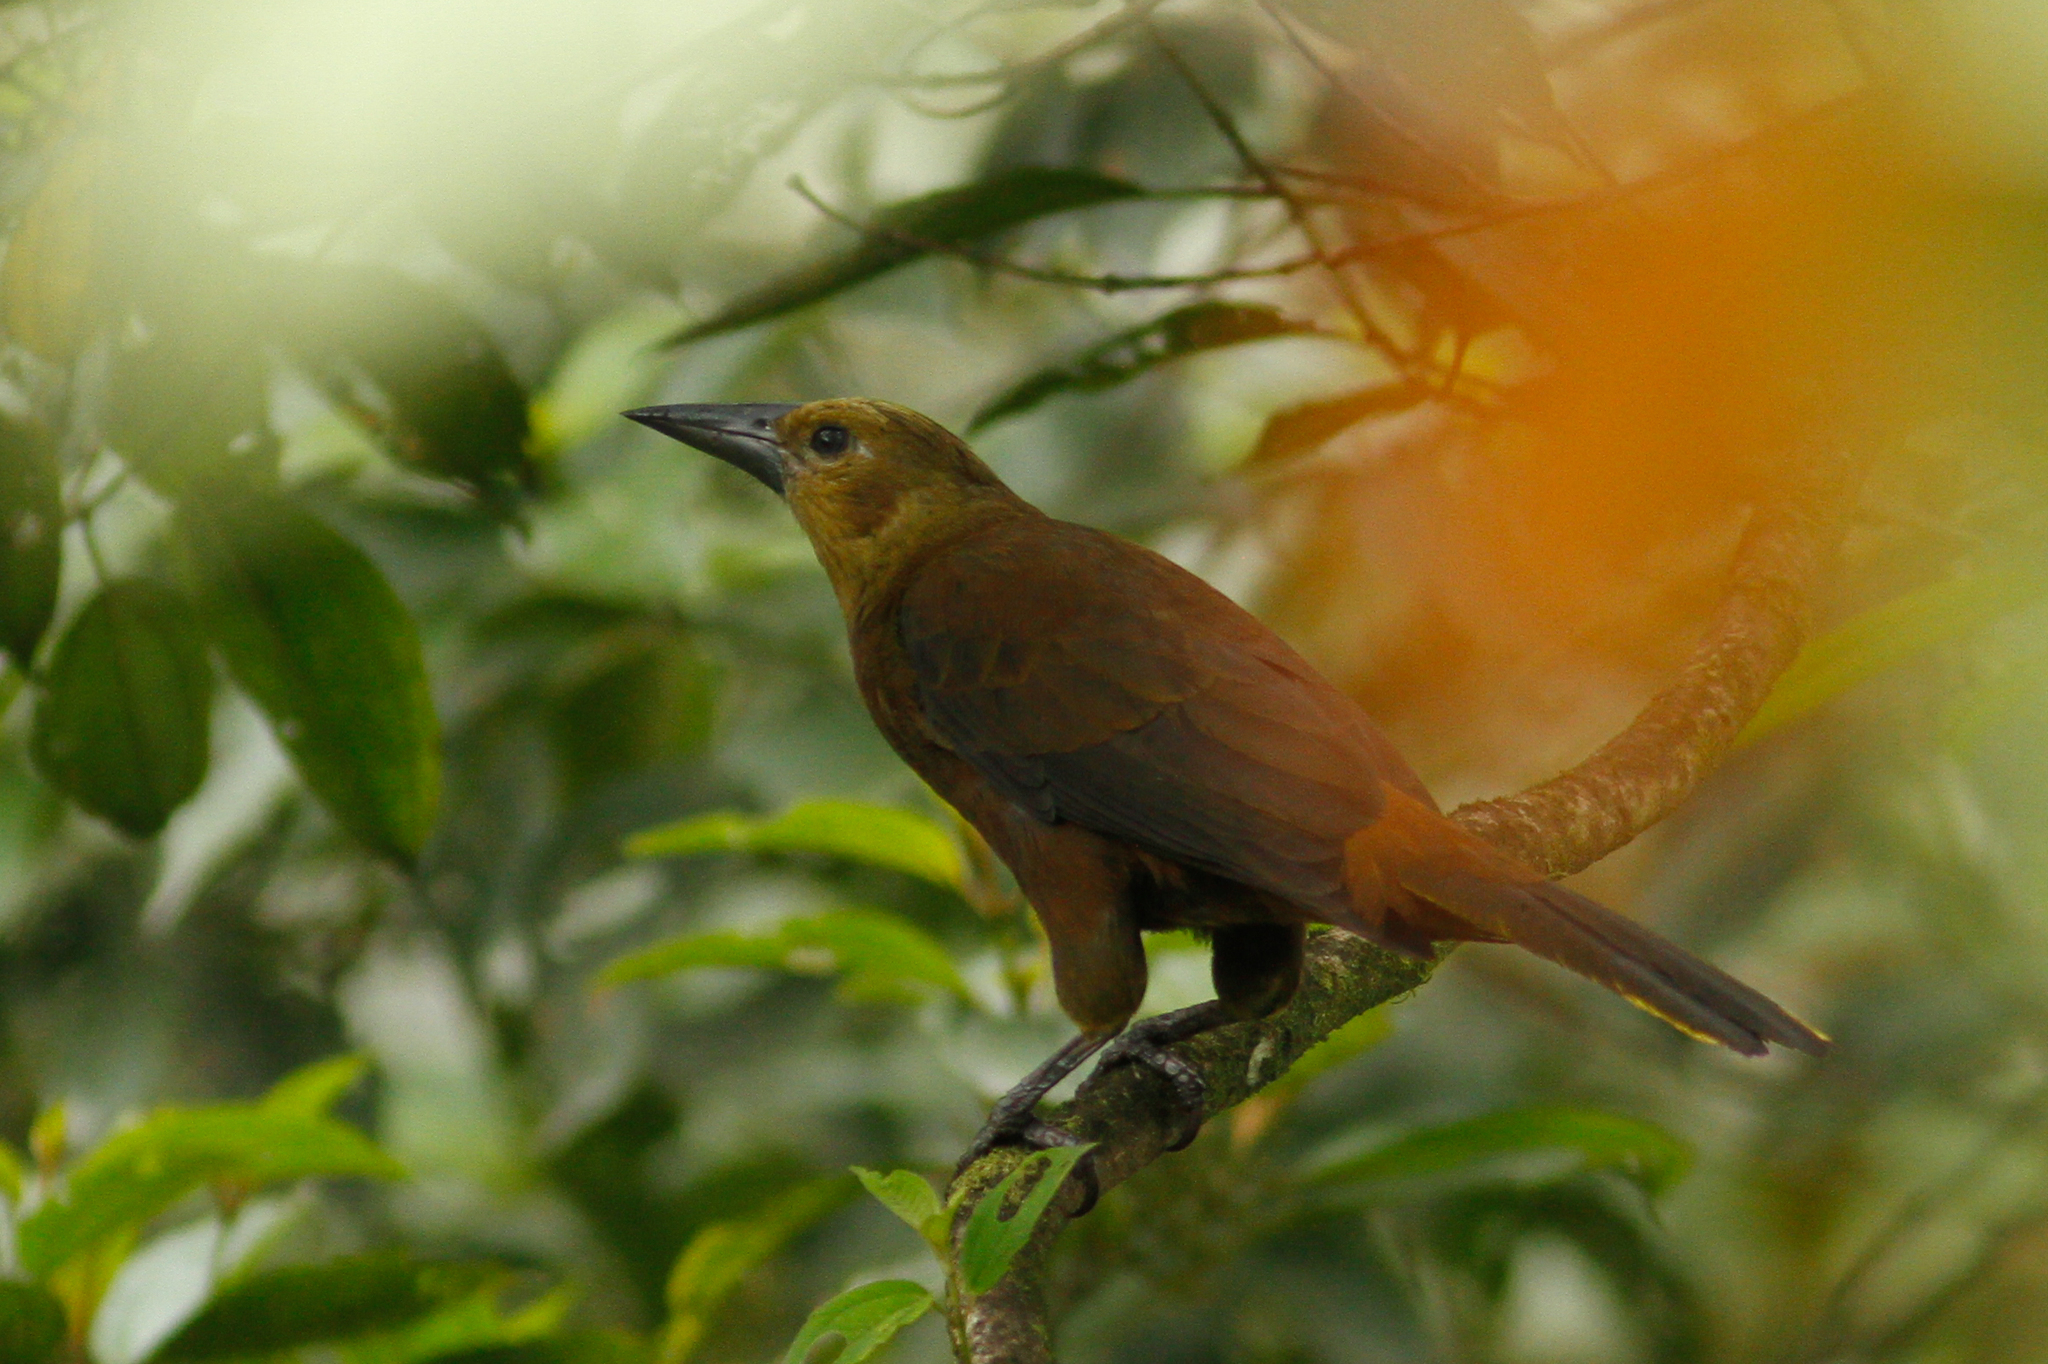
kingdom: Animalia
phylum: Chordata
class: Aves
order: Passeriformes
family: Icteridae
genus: Psarocolius
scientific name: Psarocolius angustifrons
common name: Russet-backed oropendola
